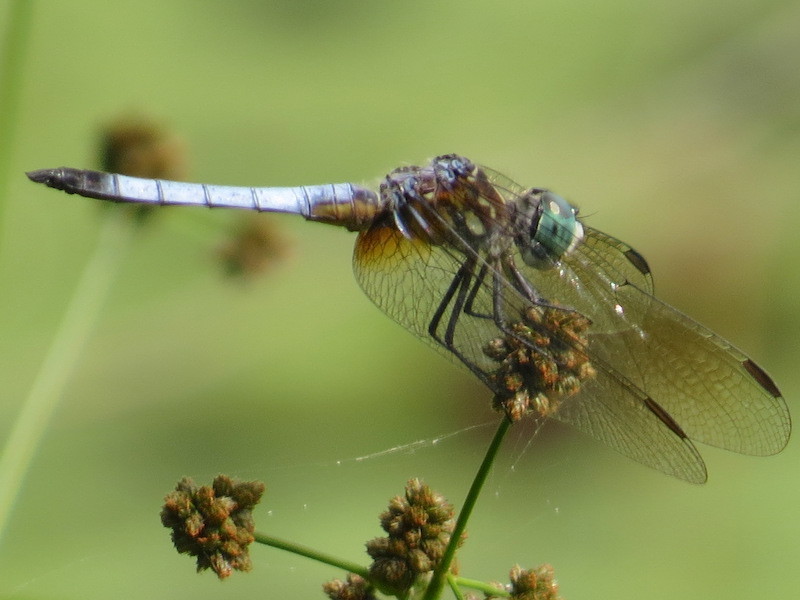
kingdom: Animalia
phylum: Arthropoda
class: Insecta
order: Odonata
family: Libellulidae
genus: Pachydiplax
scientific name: Pachydiplax longipennis
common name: Blue dasher
